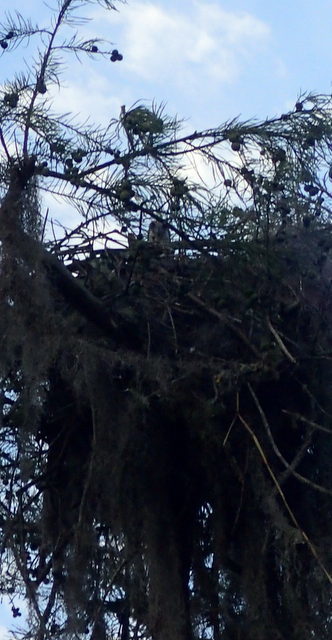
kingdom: Animalia
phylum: Chordata
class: Aves
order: Accipitriformes
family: Pandionidae
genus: Pandion
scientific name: Pandion haliaetus
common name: Osprey
